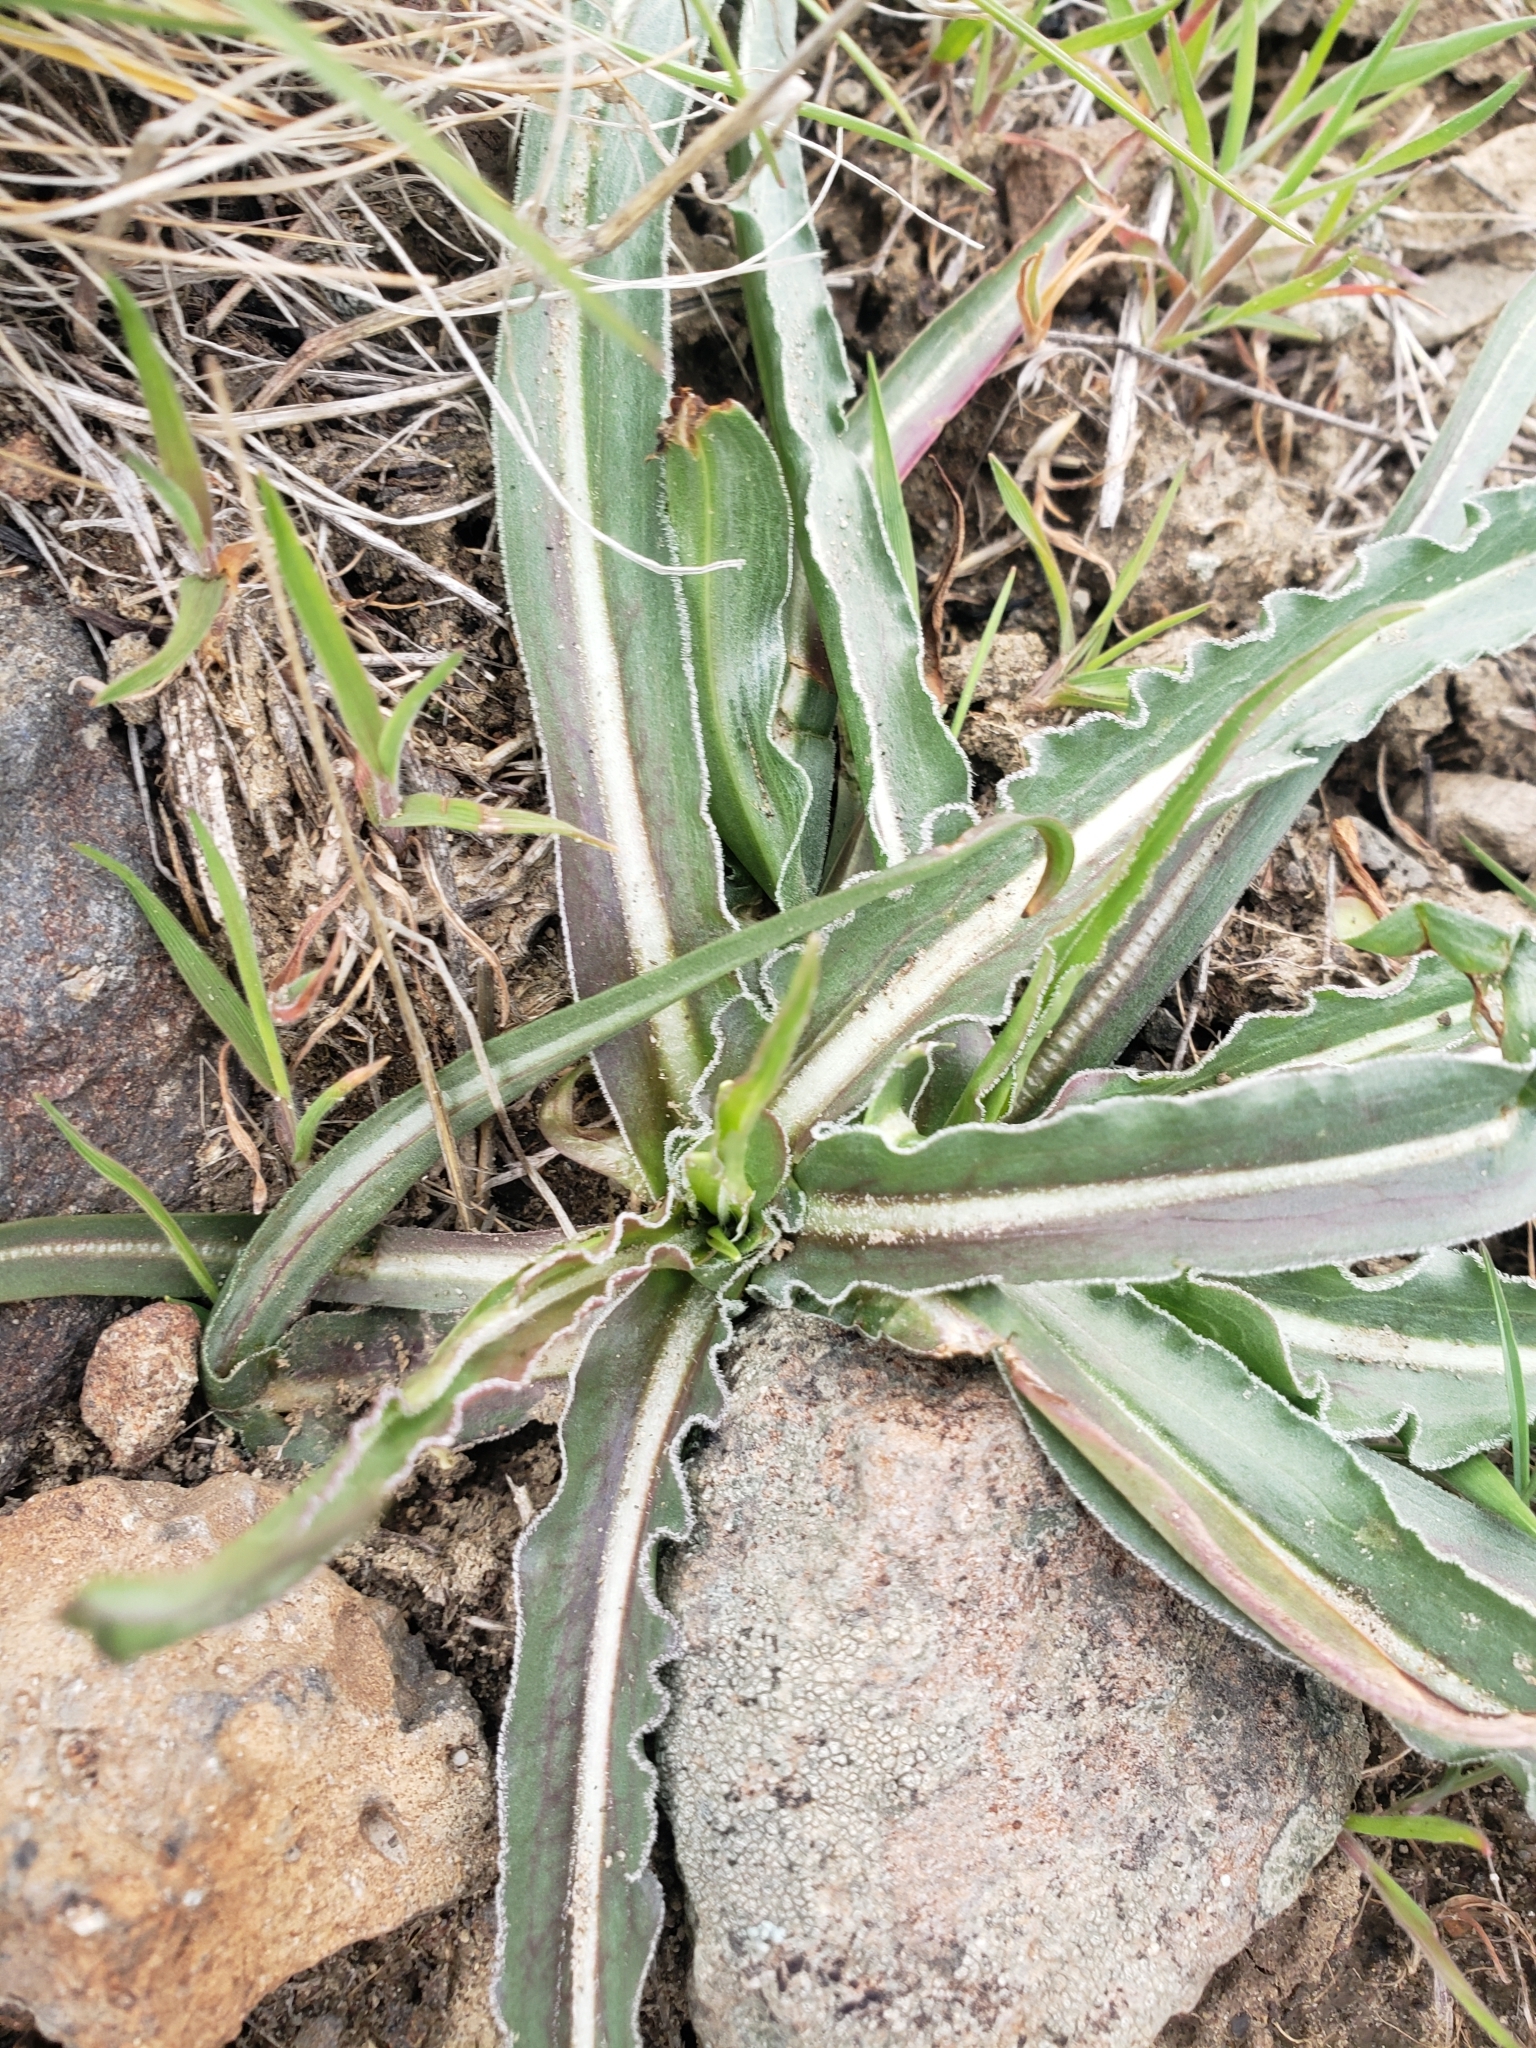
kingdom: Plantae
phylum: Tracheophyta
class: Magnoliopsida
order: Asterales
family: Asteraceae
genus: Microseris
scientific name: Microseris troximoides
